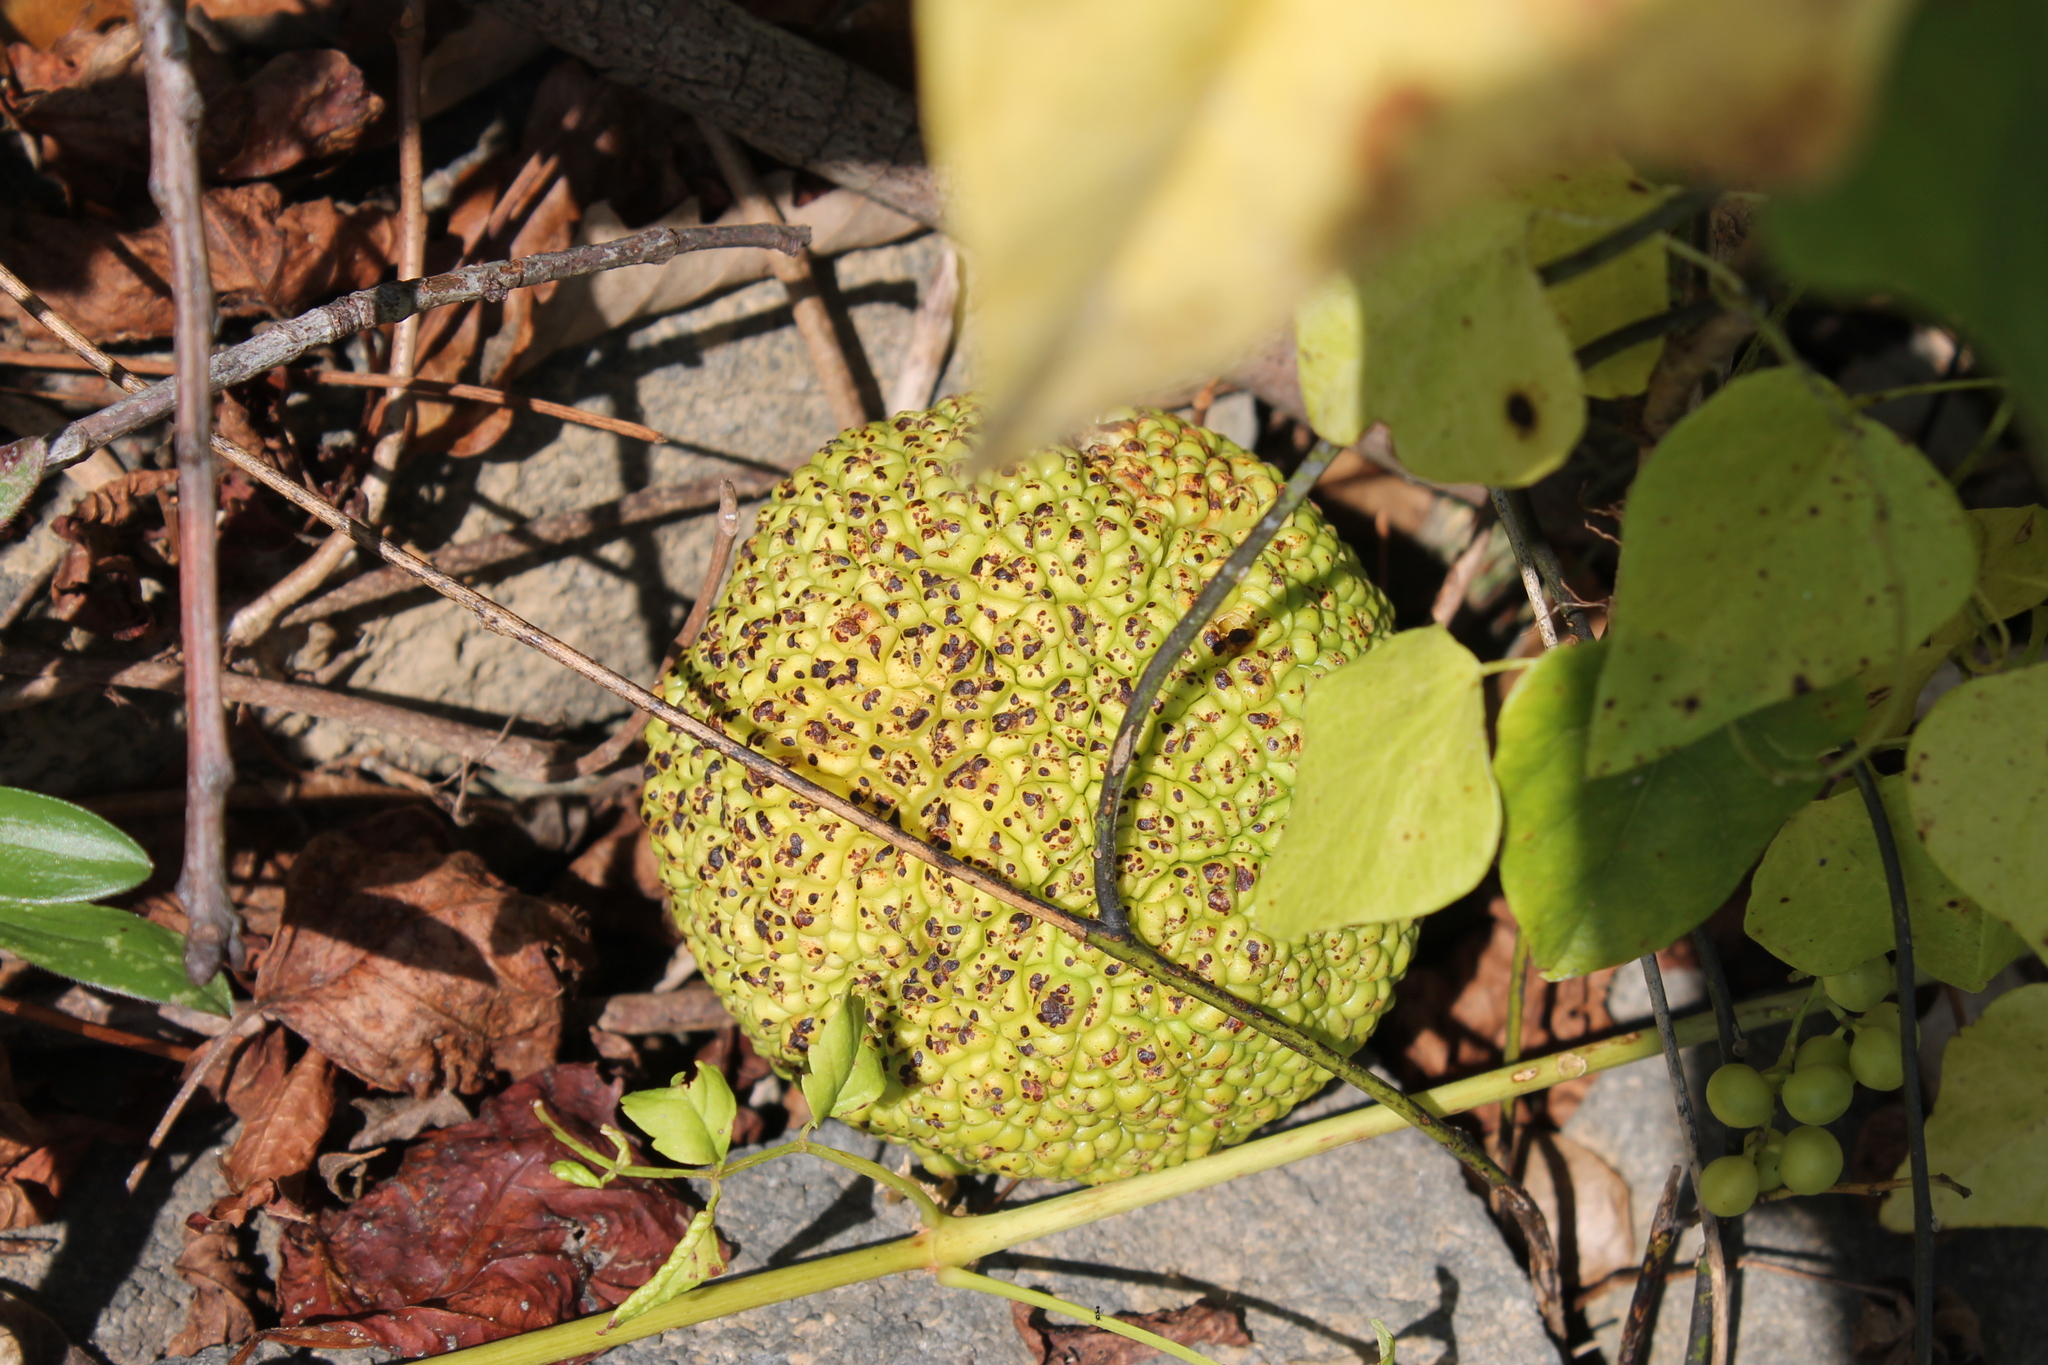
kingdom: Plantae
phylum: Tracheophyta
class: Magnoliopsida
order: Rosales
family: Moraceae
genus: Maclura
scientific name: Maclura pomifera
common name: Osage-orange
